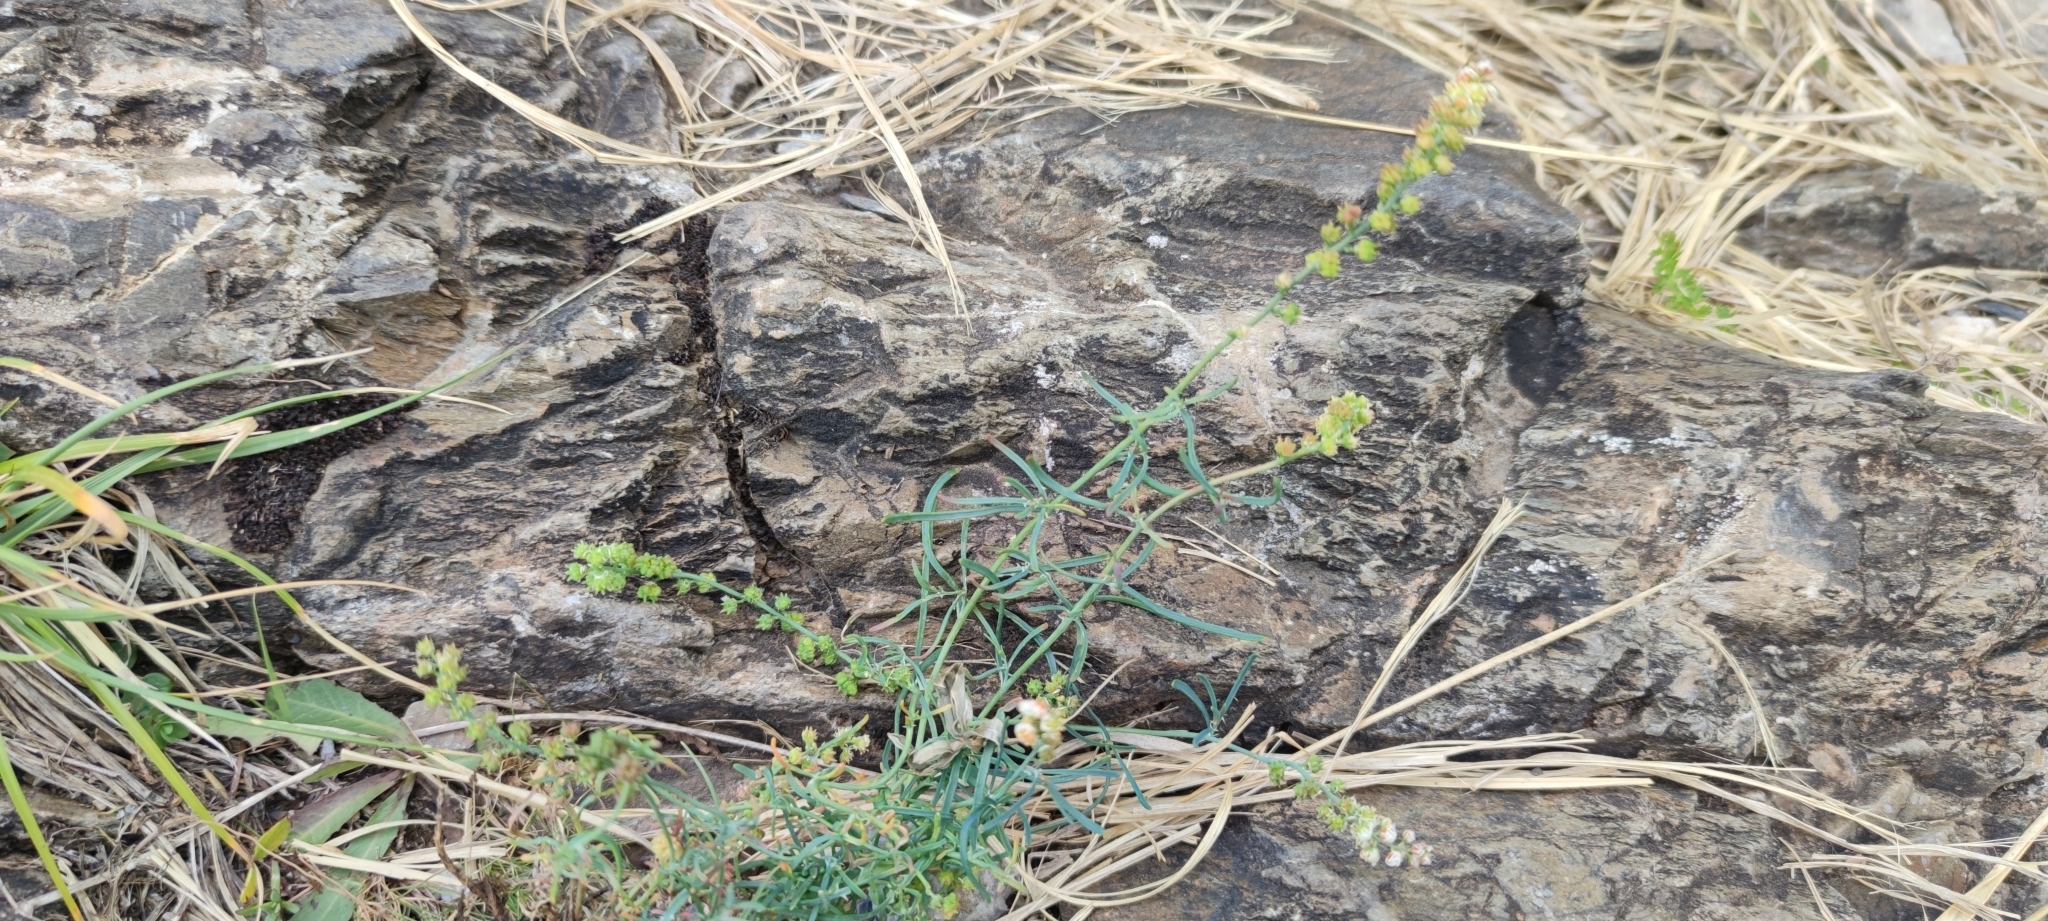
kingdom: Plantae
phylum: Tracheophyta
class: Magnoliopsida
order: Brassicales
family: Resedaceae
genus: Reseda
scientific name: Reseda glauca
